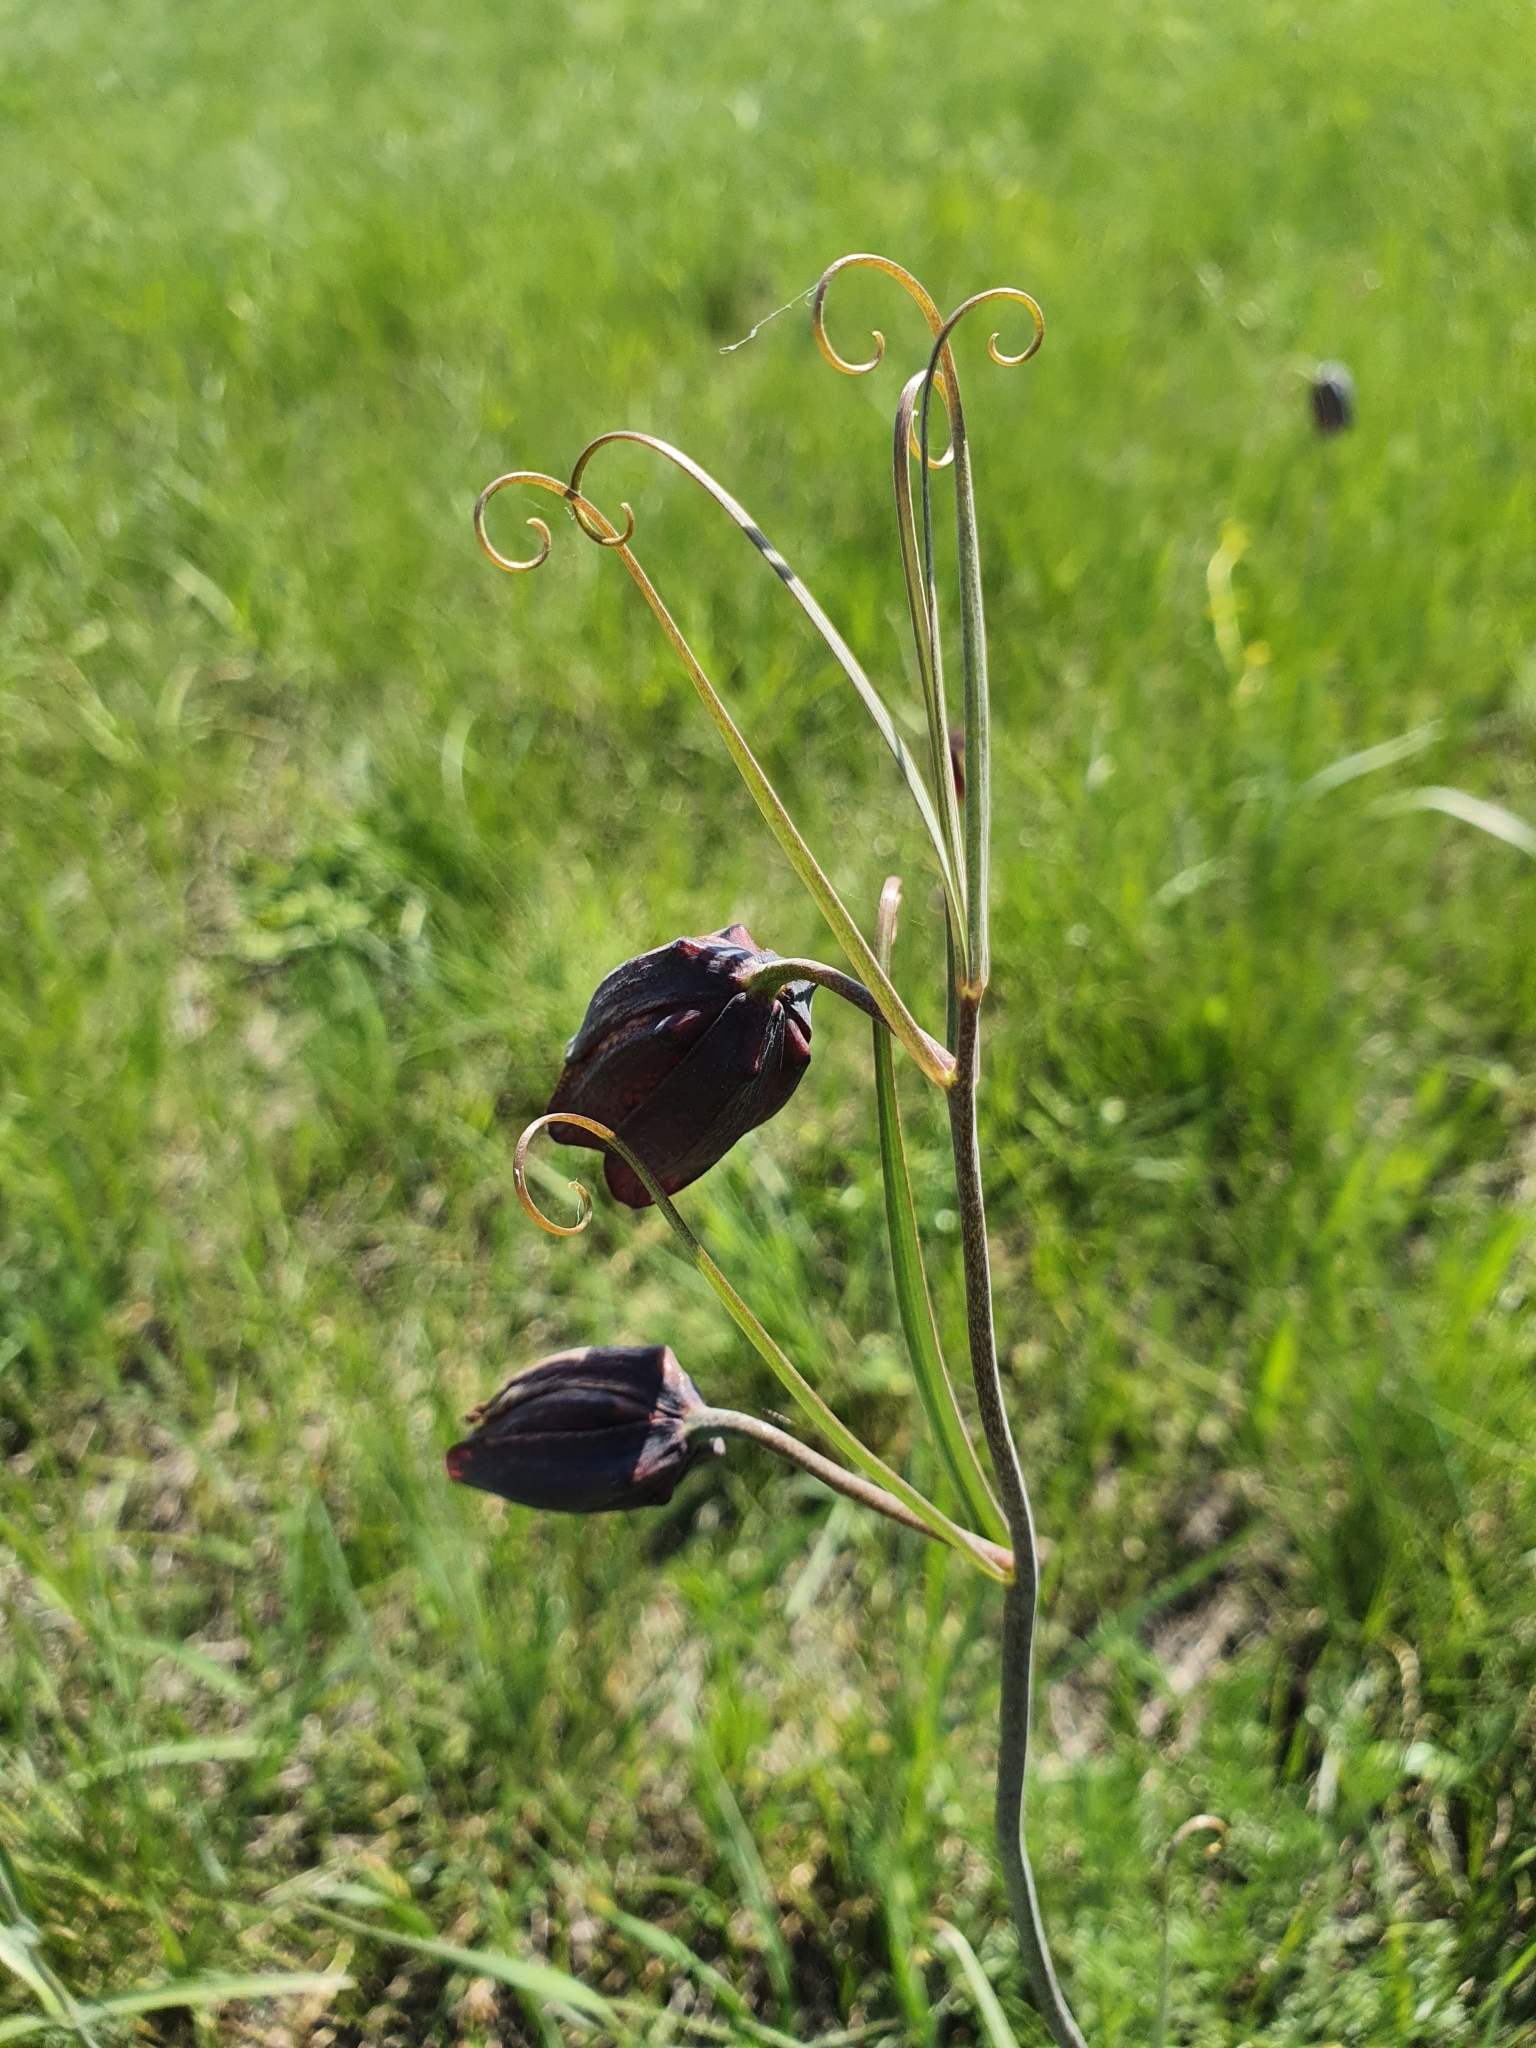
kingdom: Plantae
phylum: Tracheophyta
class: Liliopsida
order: Liliales
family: Liliaceae
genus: Fritillaria
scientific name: Fritillaria ruthenica
